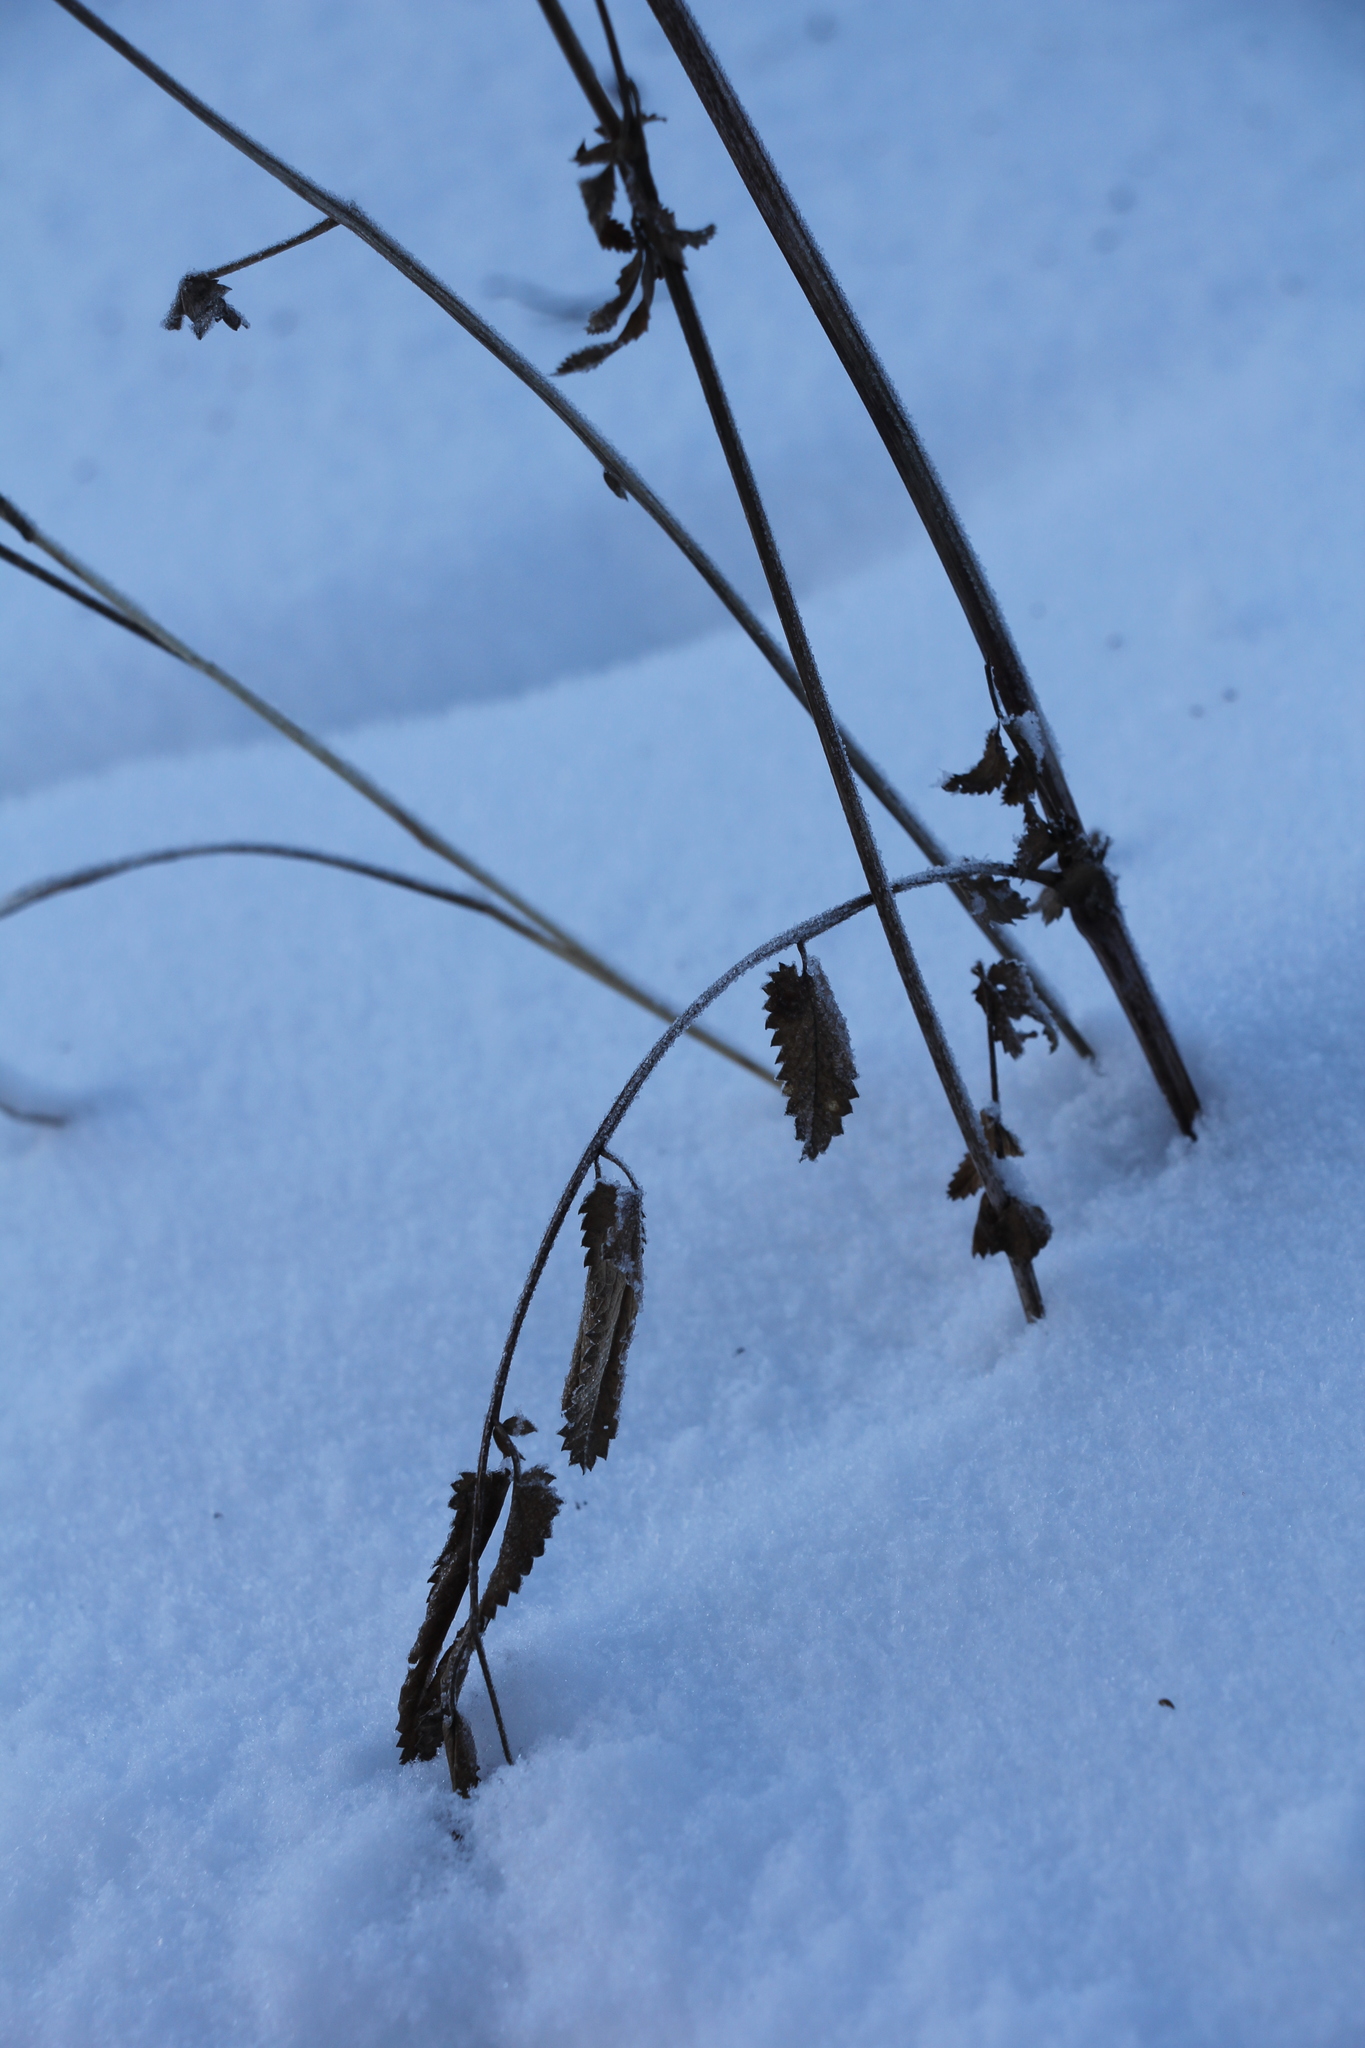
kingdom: Plantae
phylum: Tracheophyta
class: Magnoliopsida
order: Rosales
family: Rosaceae
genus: Sanguisorba
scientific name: Sanguisorba officinalis
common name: Great burnet
